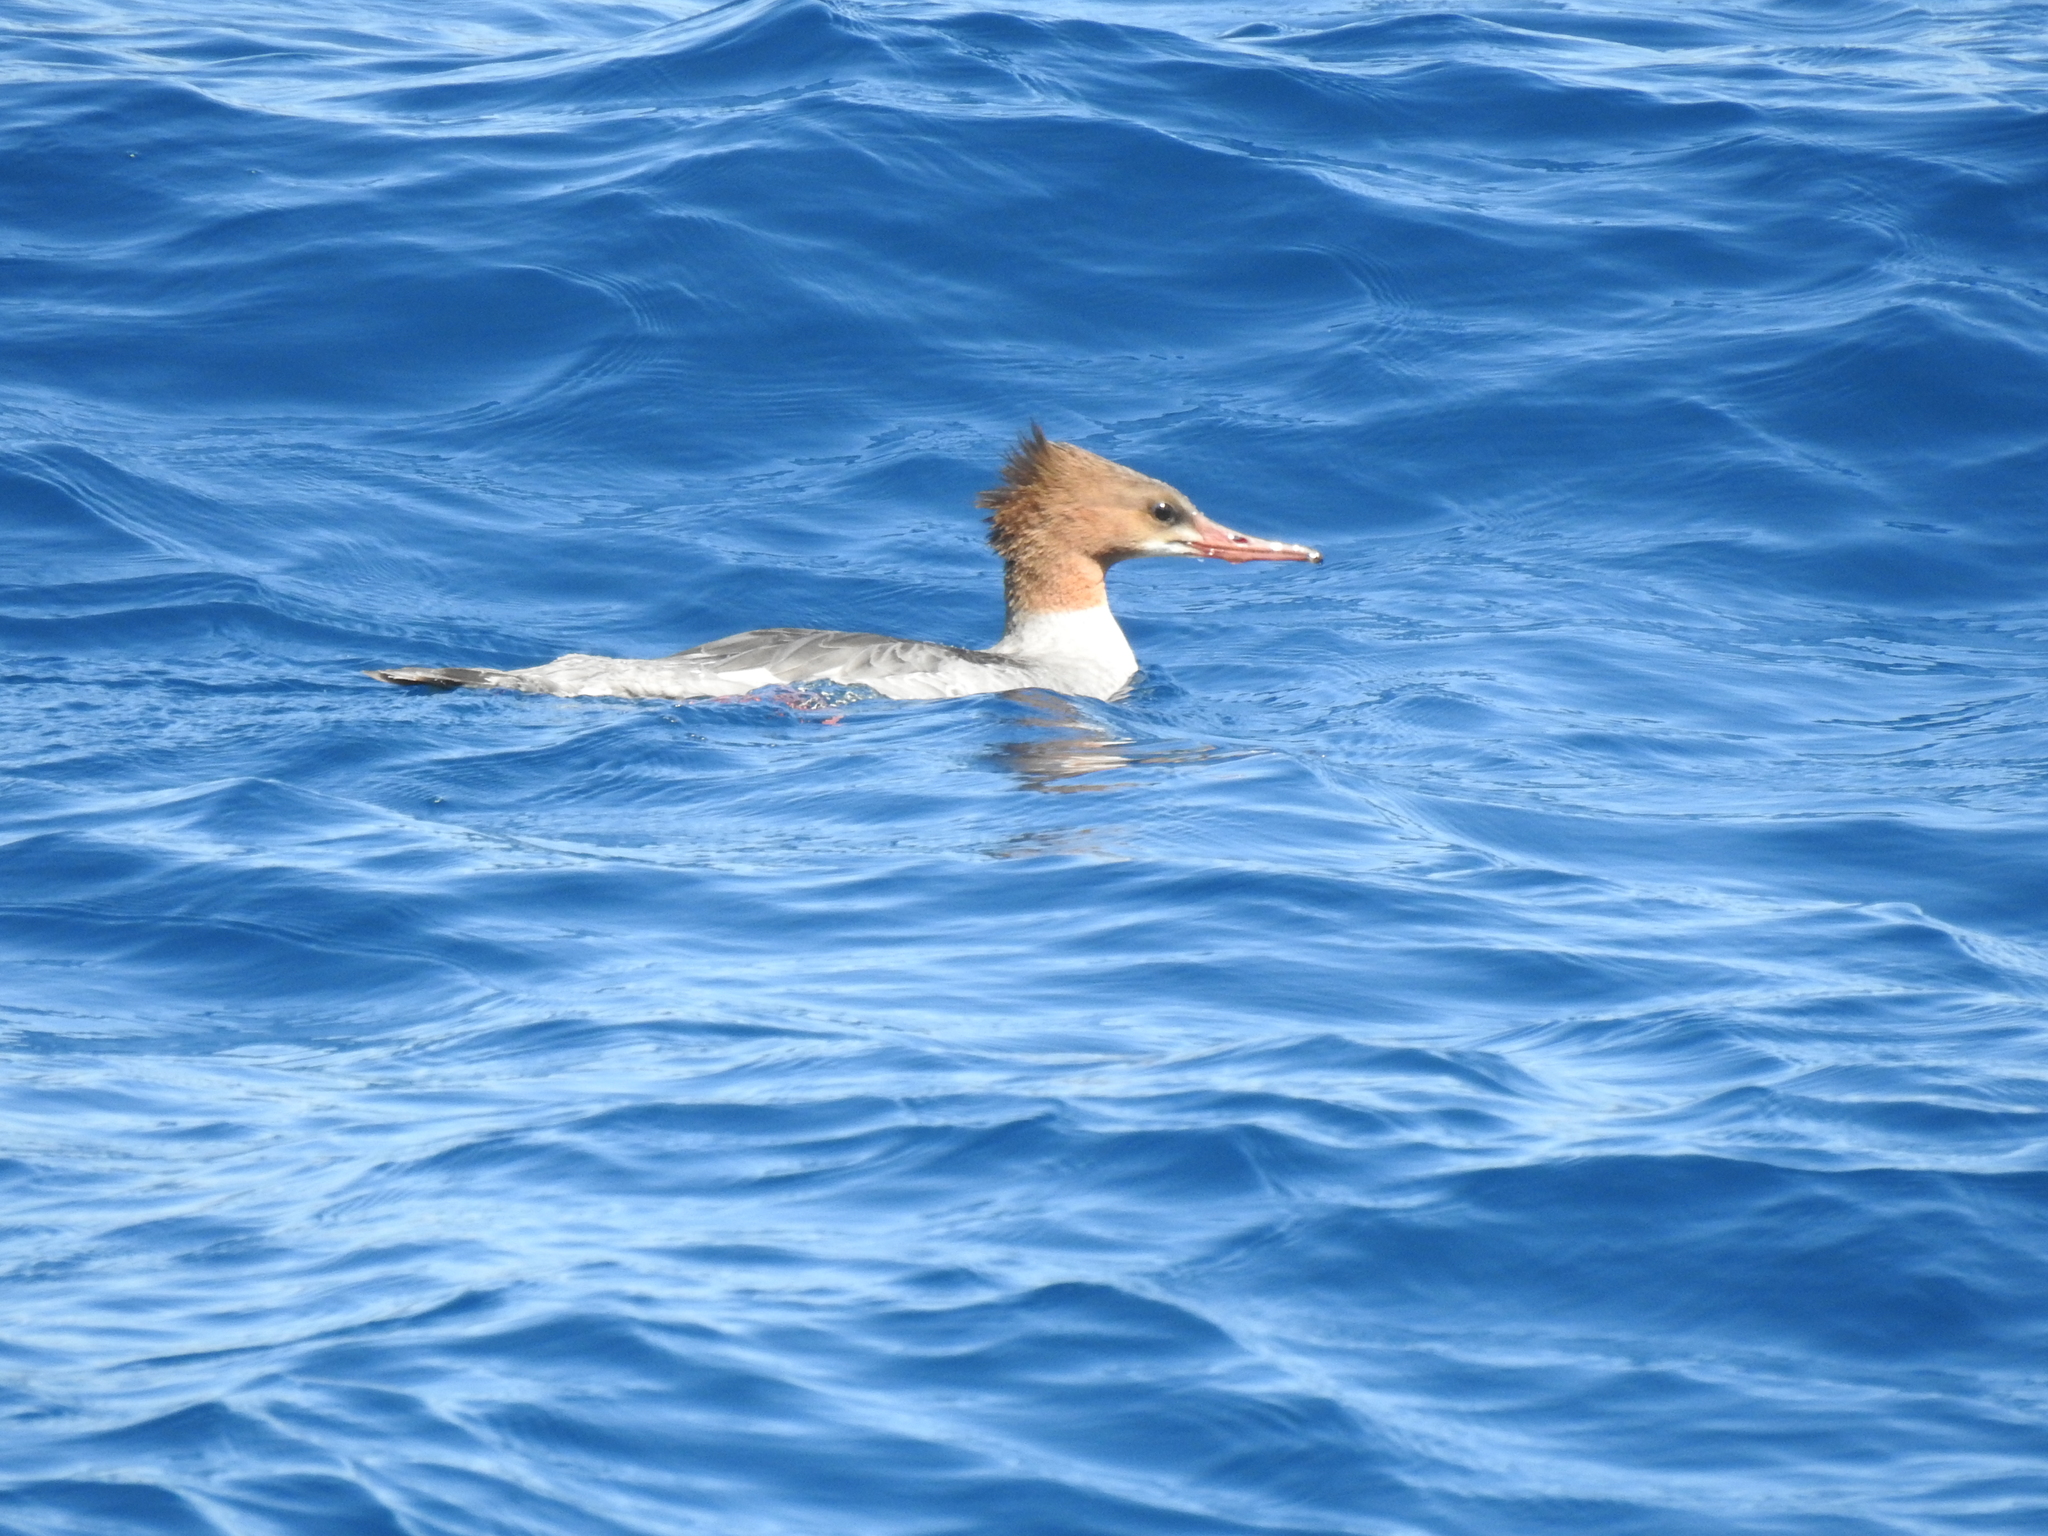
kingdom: Animalia
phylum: Chordata
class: Aves
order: Anseriformes
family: Anatidae
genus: Mergus
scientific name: Mergus merganser
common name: Common merganser
